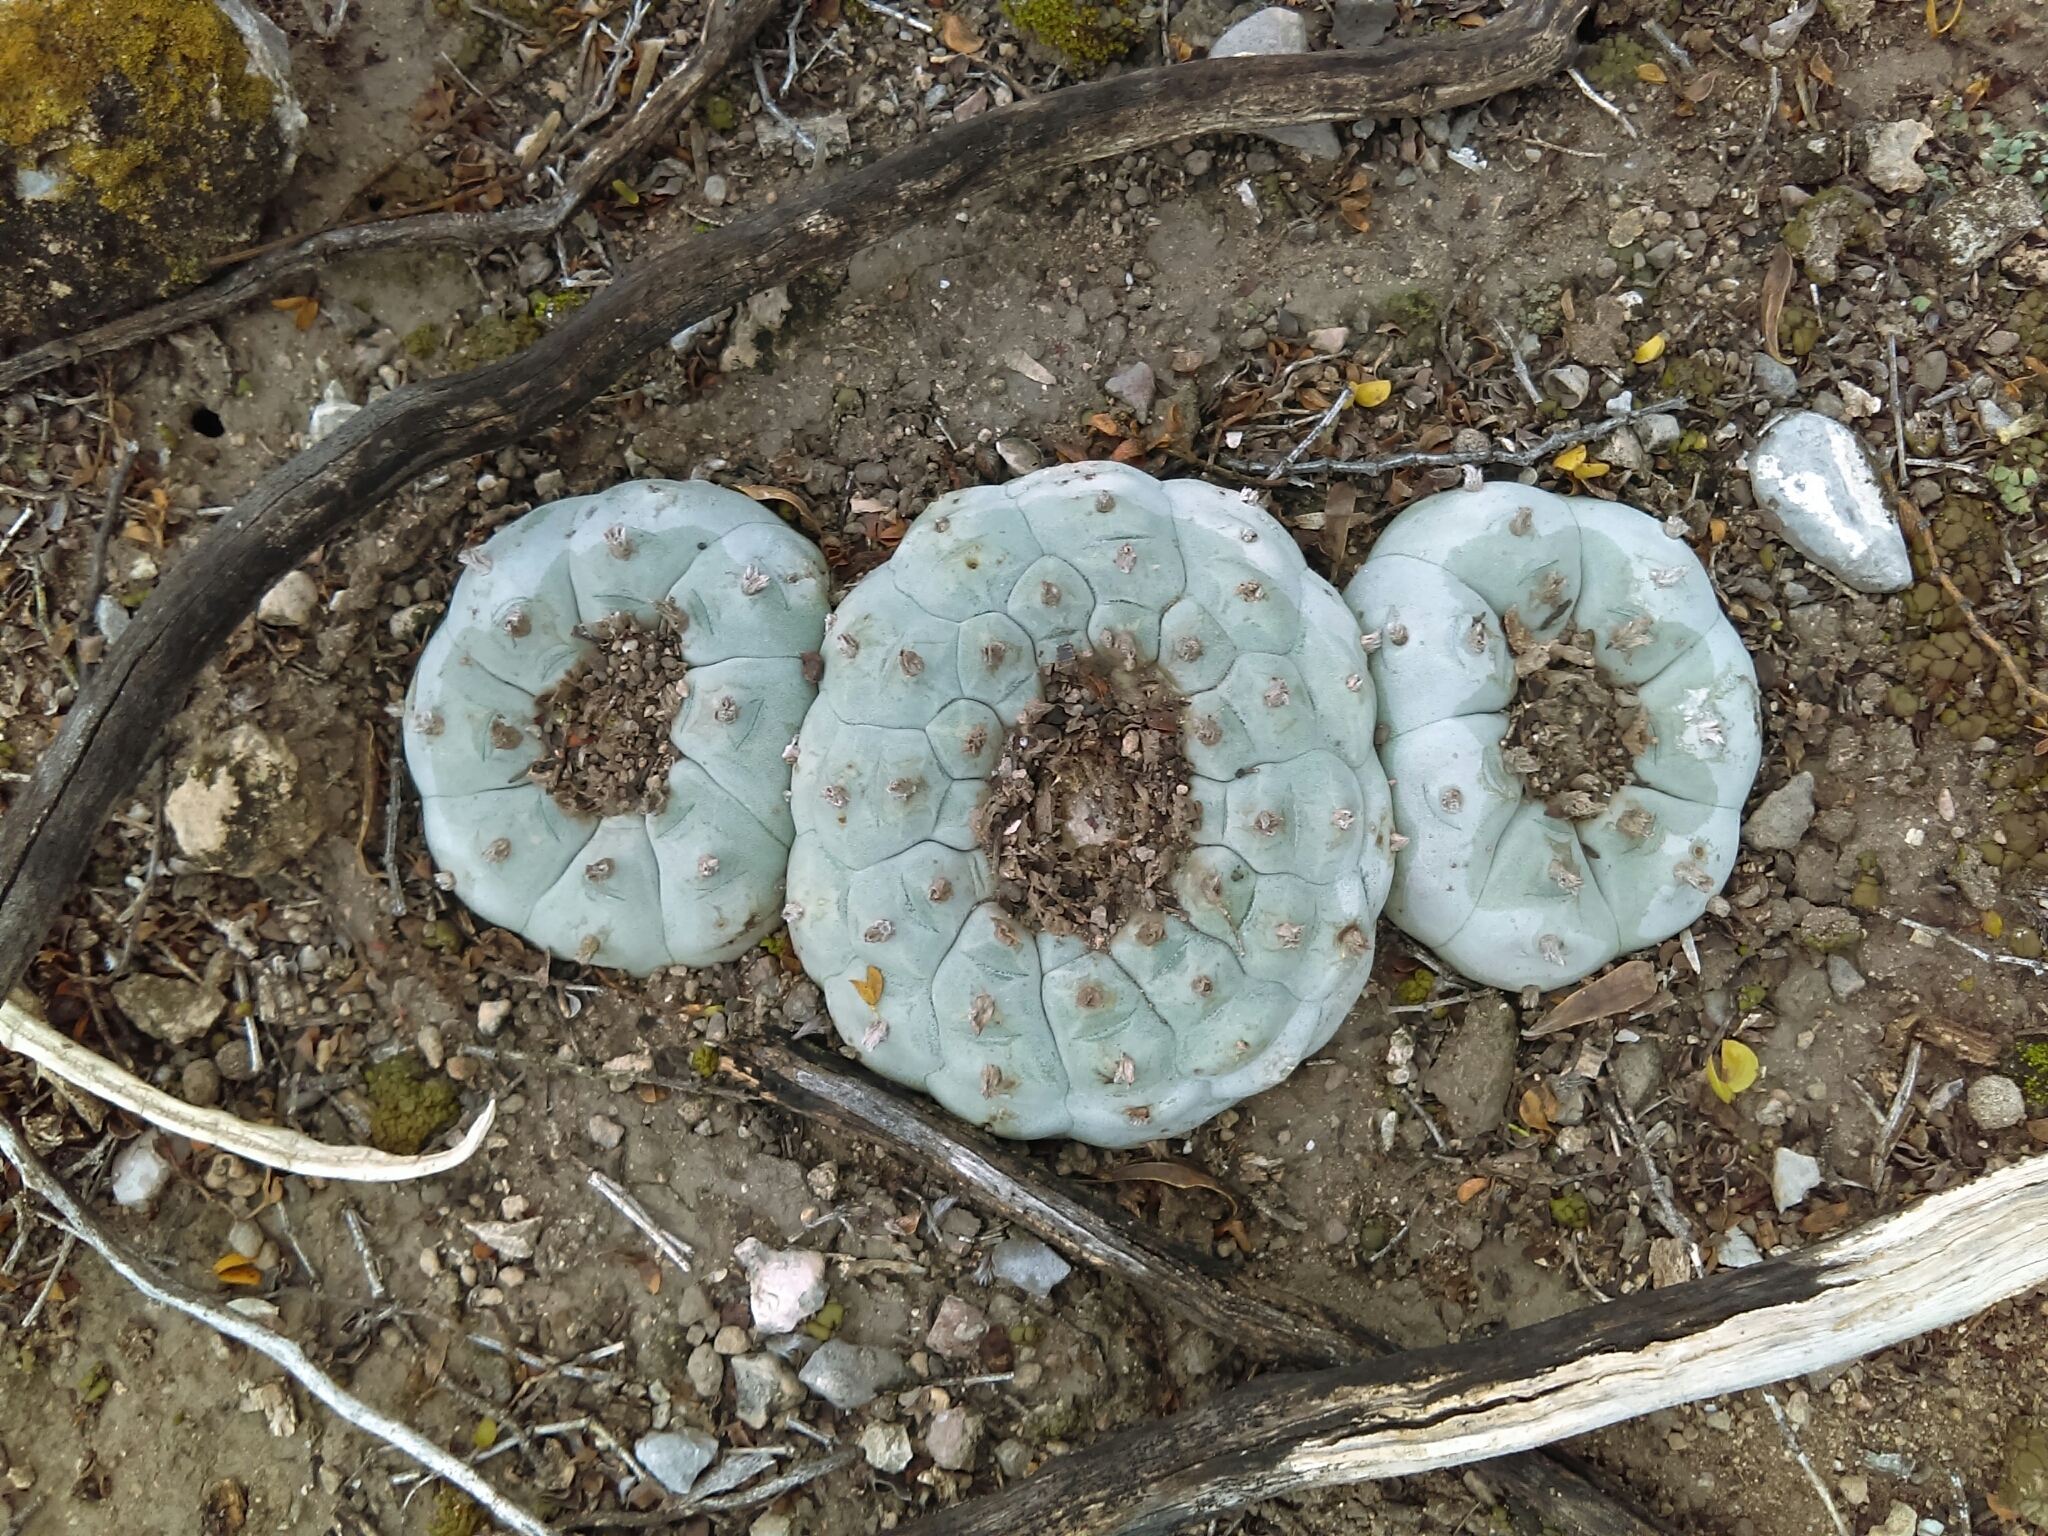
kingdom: Plantae
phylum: Tracheophyta
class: Magnoliopsida
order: Caryophyllales
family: Cactaceae
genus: Lophophora
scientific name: Lophophora williamsii
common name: Indian-dope
